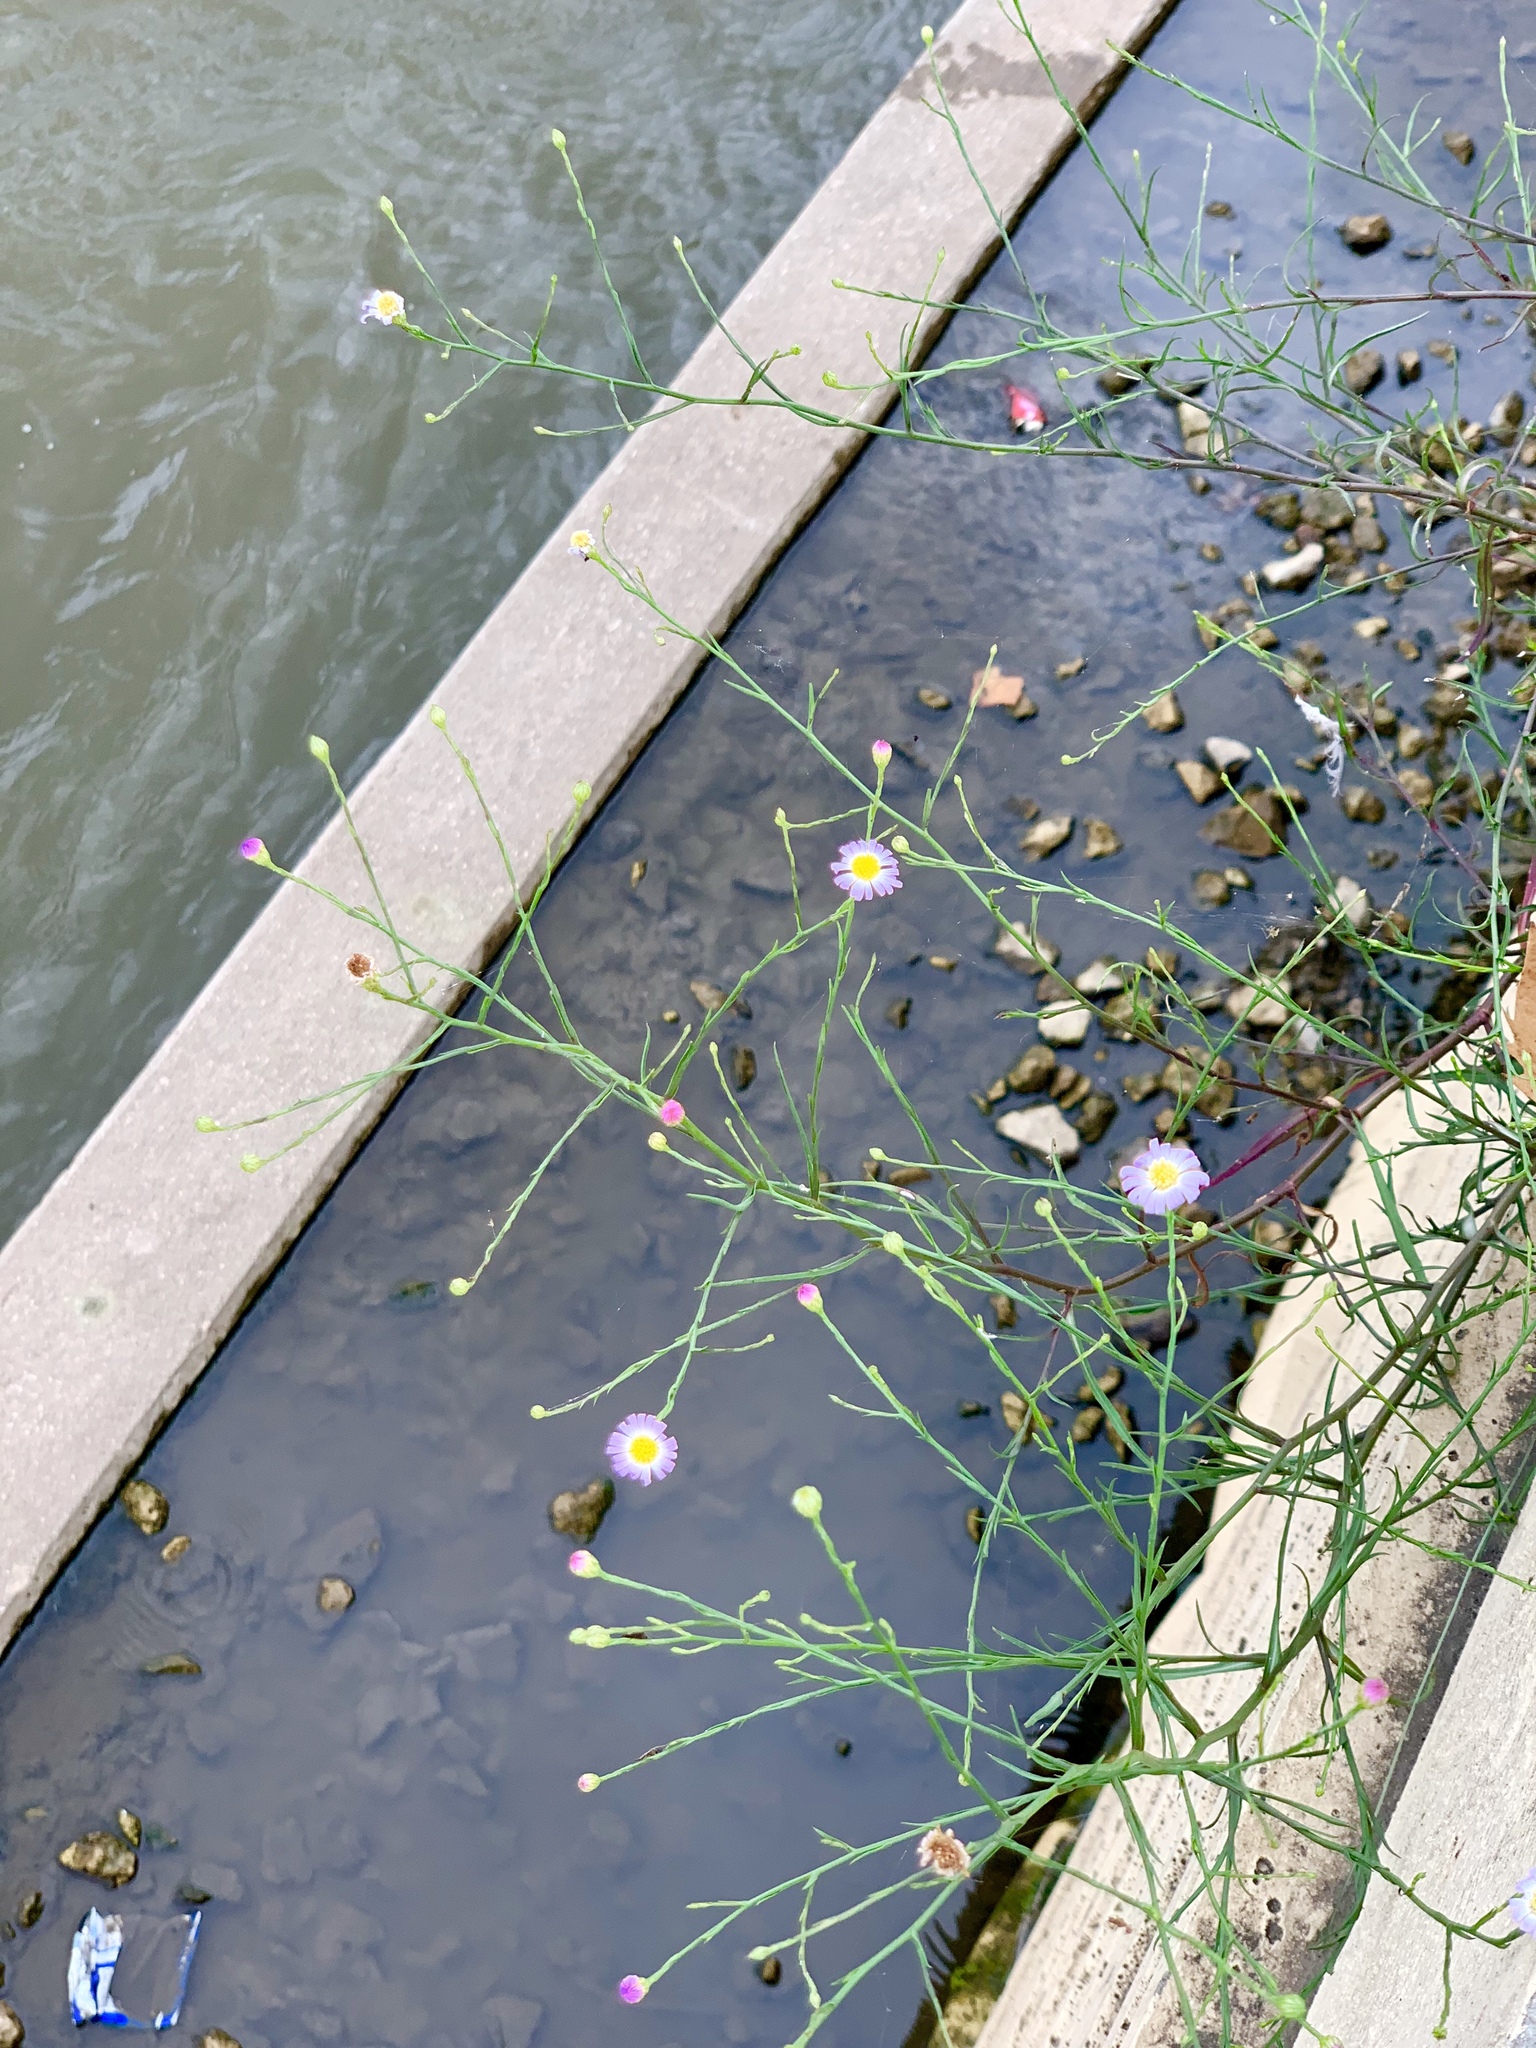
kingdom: Plantae
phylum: Tracheophyta
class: Magnoliopsida
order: Asterales
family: Asteraceae
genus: Symphyotrichum
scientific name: Symphyotrichum divaricatum
